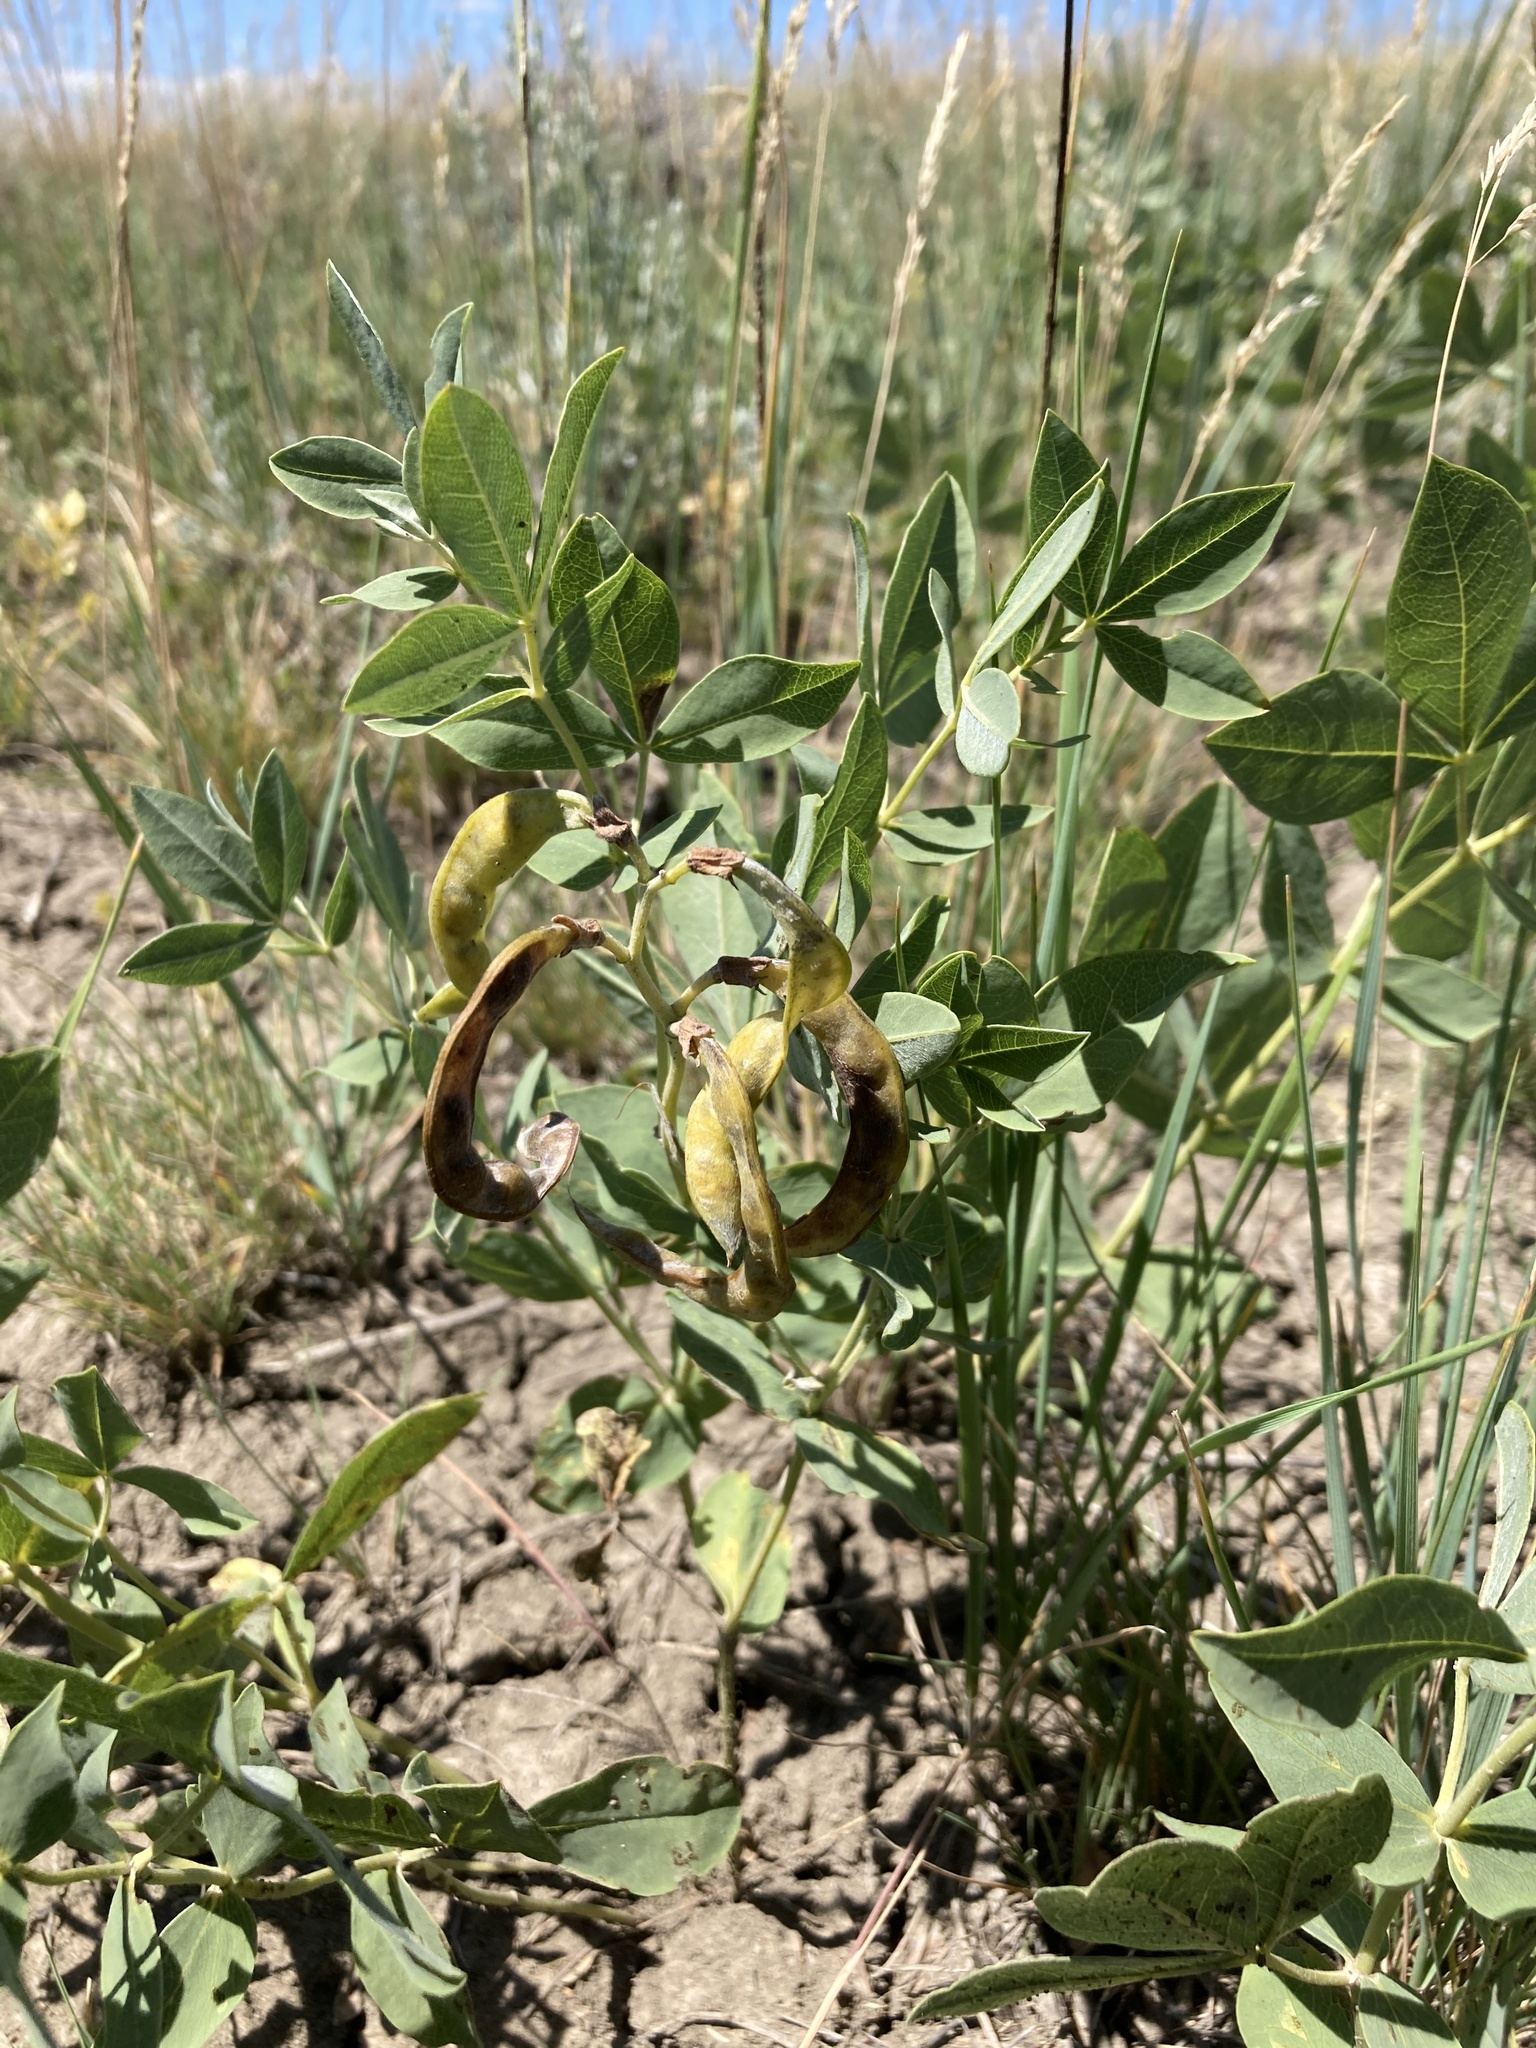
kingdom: Plantae
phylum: Tracheophyta
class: Magnoliopsida
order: Fabales
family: Fabaceae
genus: Thermopsis
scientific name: Thermopsis rhombifolia
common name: Circle-pod-pea
